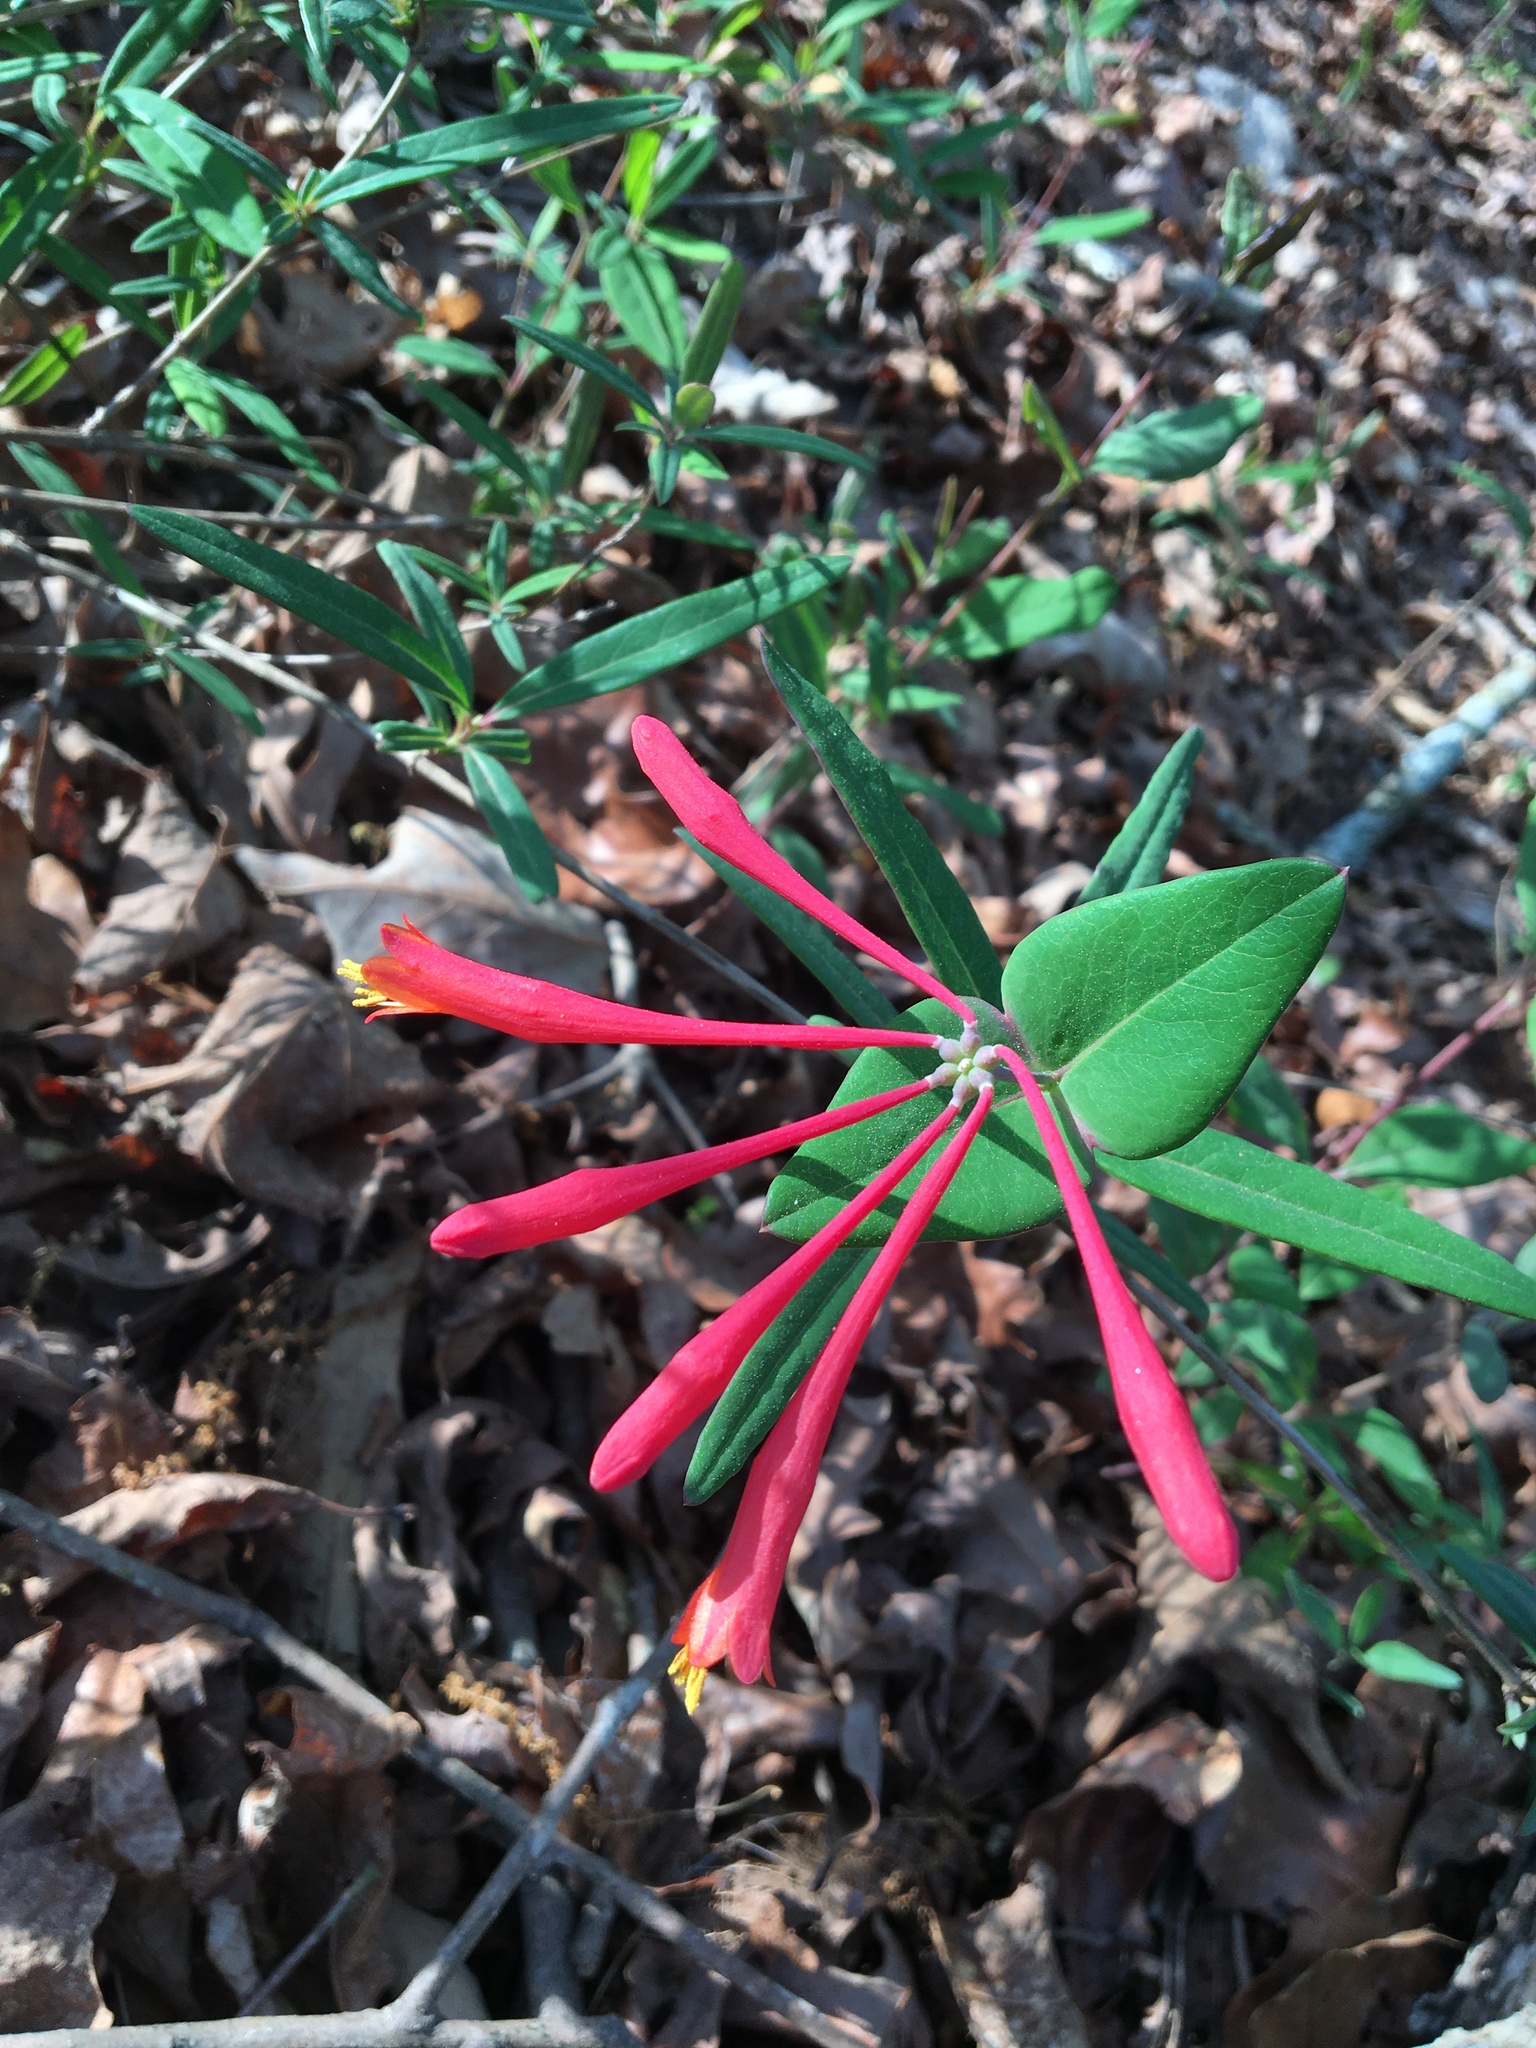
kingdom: Plantae
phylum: Tracheophyta
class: Magnoliopsida
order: Dipsacales
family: Caprifoliaceae
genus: Lonicera
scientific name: Lonicera sempervirens
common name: Coral honeysuckle
